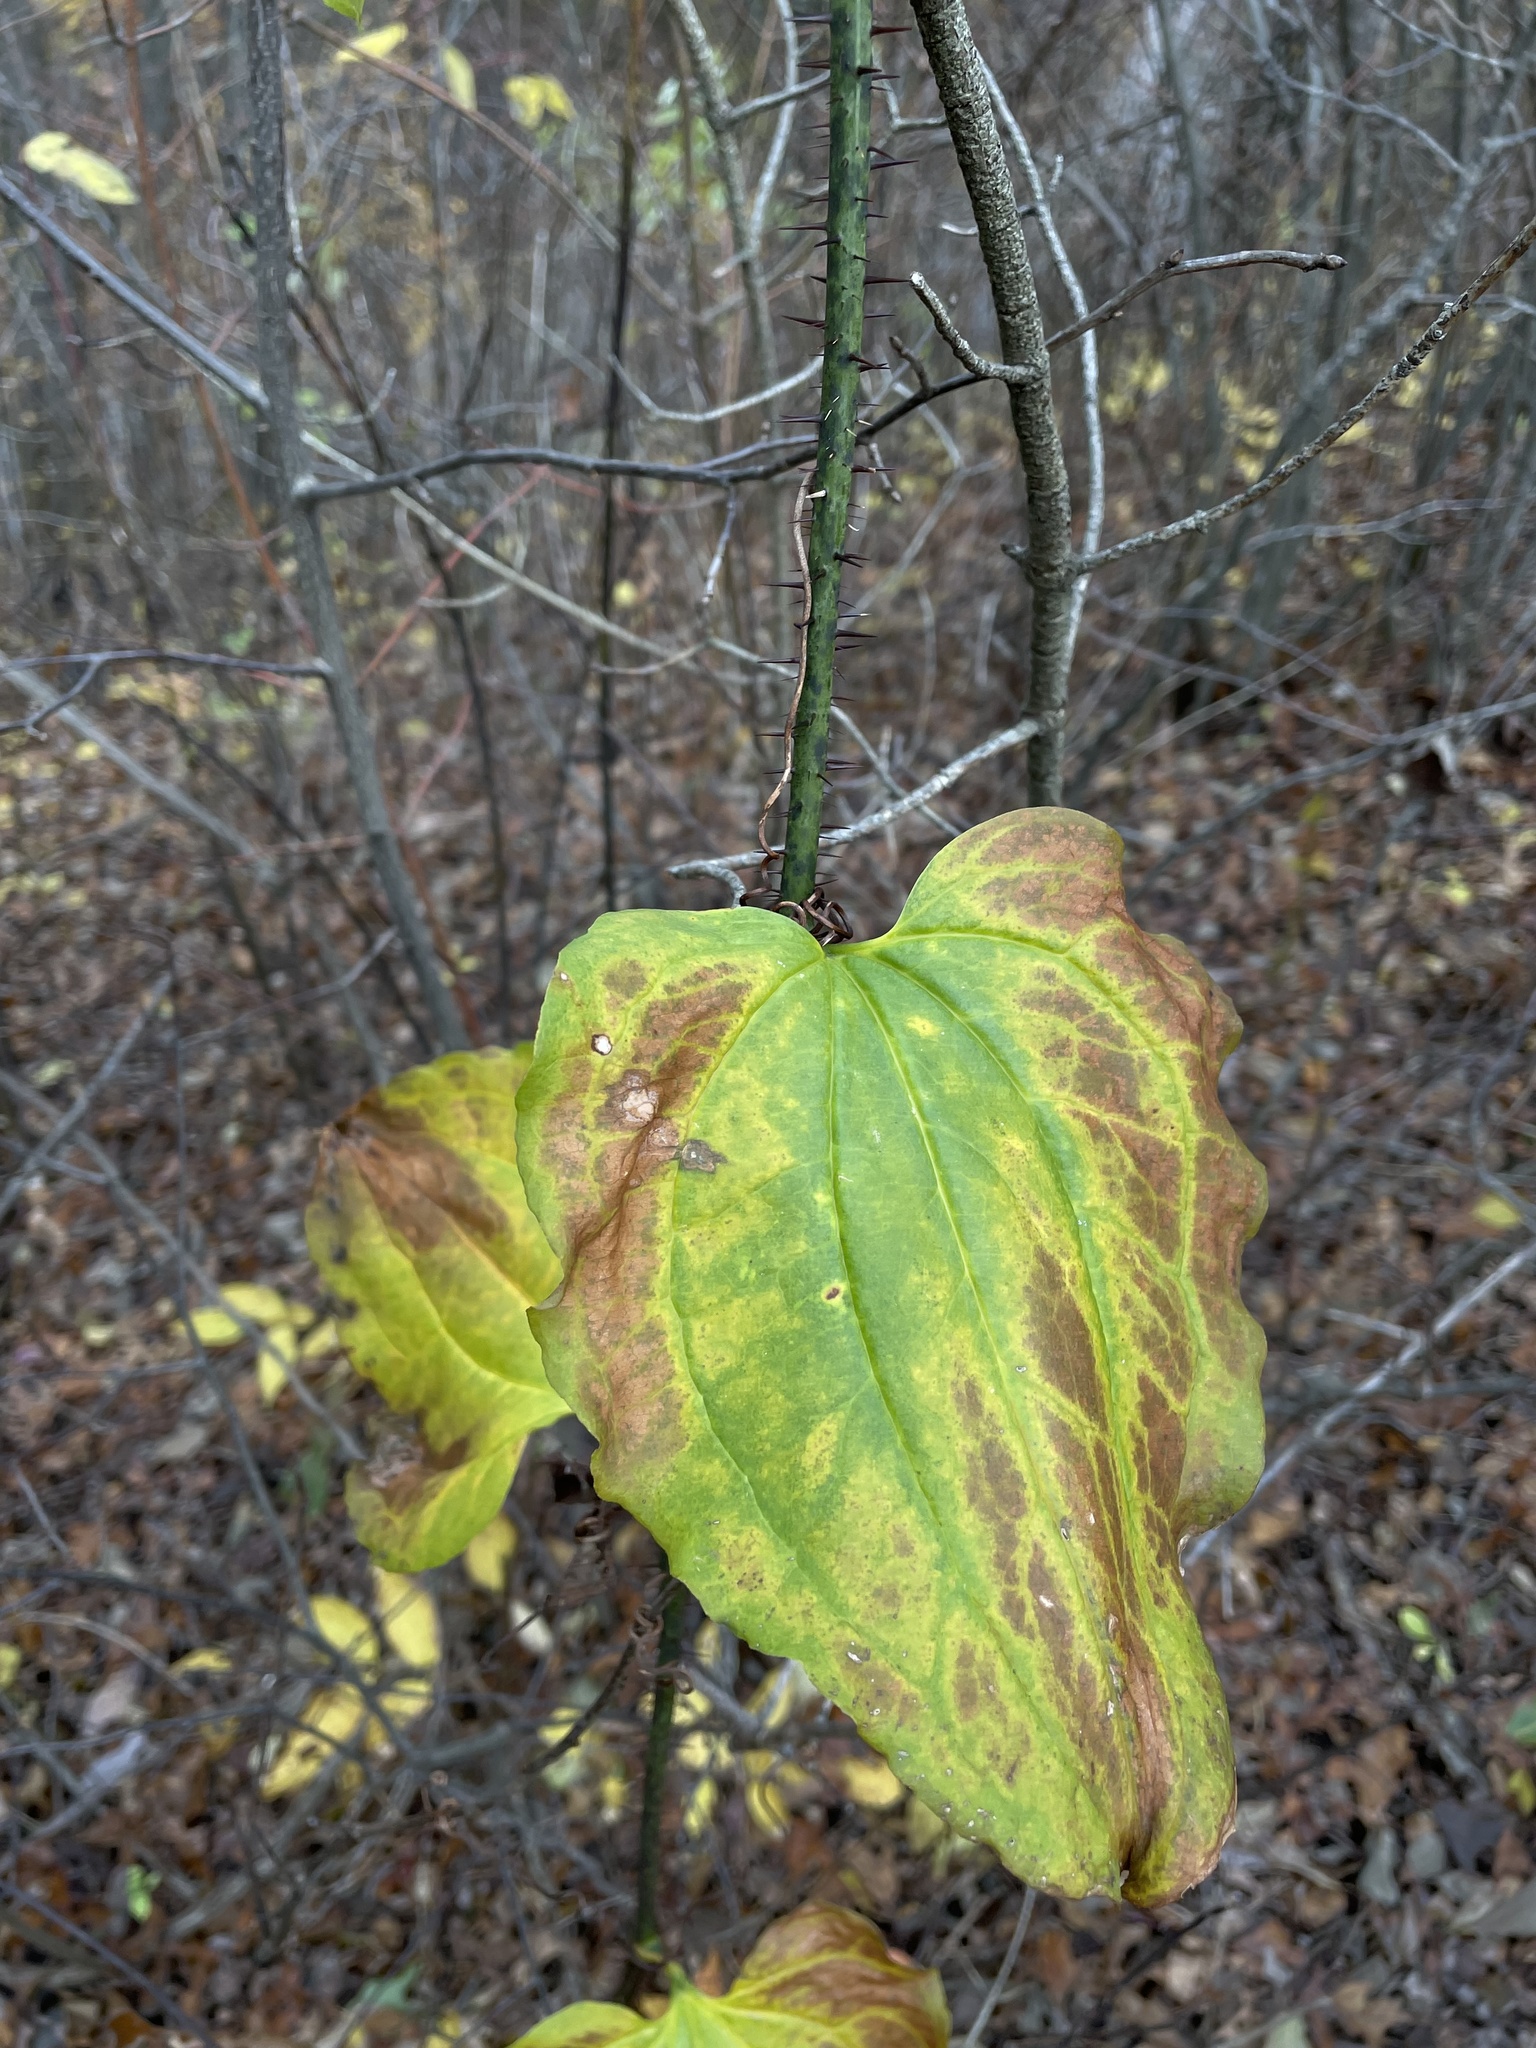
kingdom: Plantae
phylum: Tracheophyta
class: Liliopsida
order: Liliales
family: Smilacaceae
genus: Smilax
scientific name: Smilax tamnoides
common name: Hellfetter
